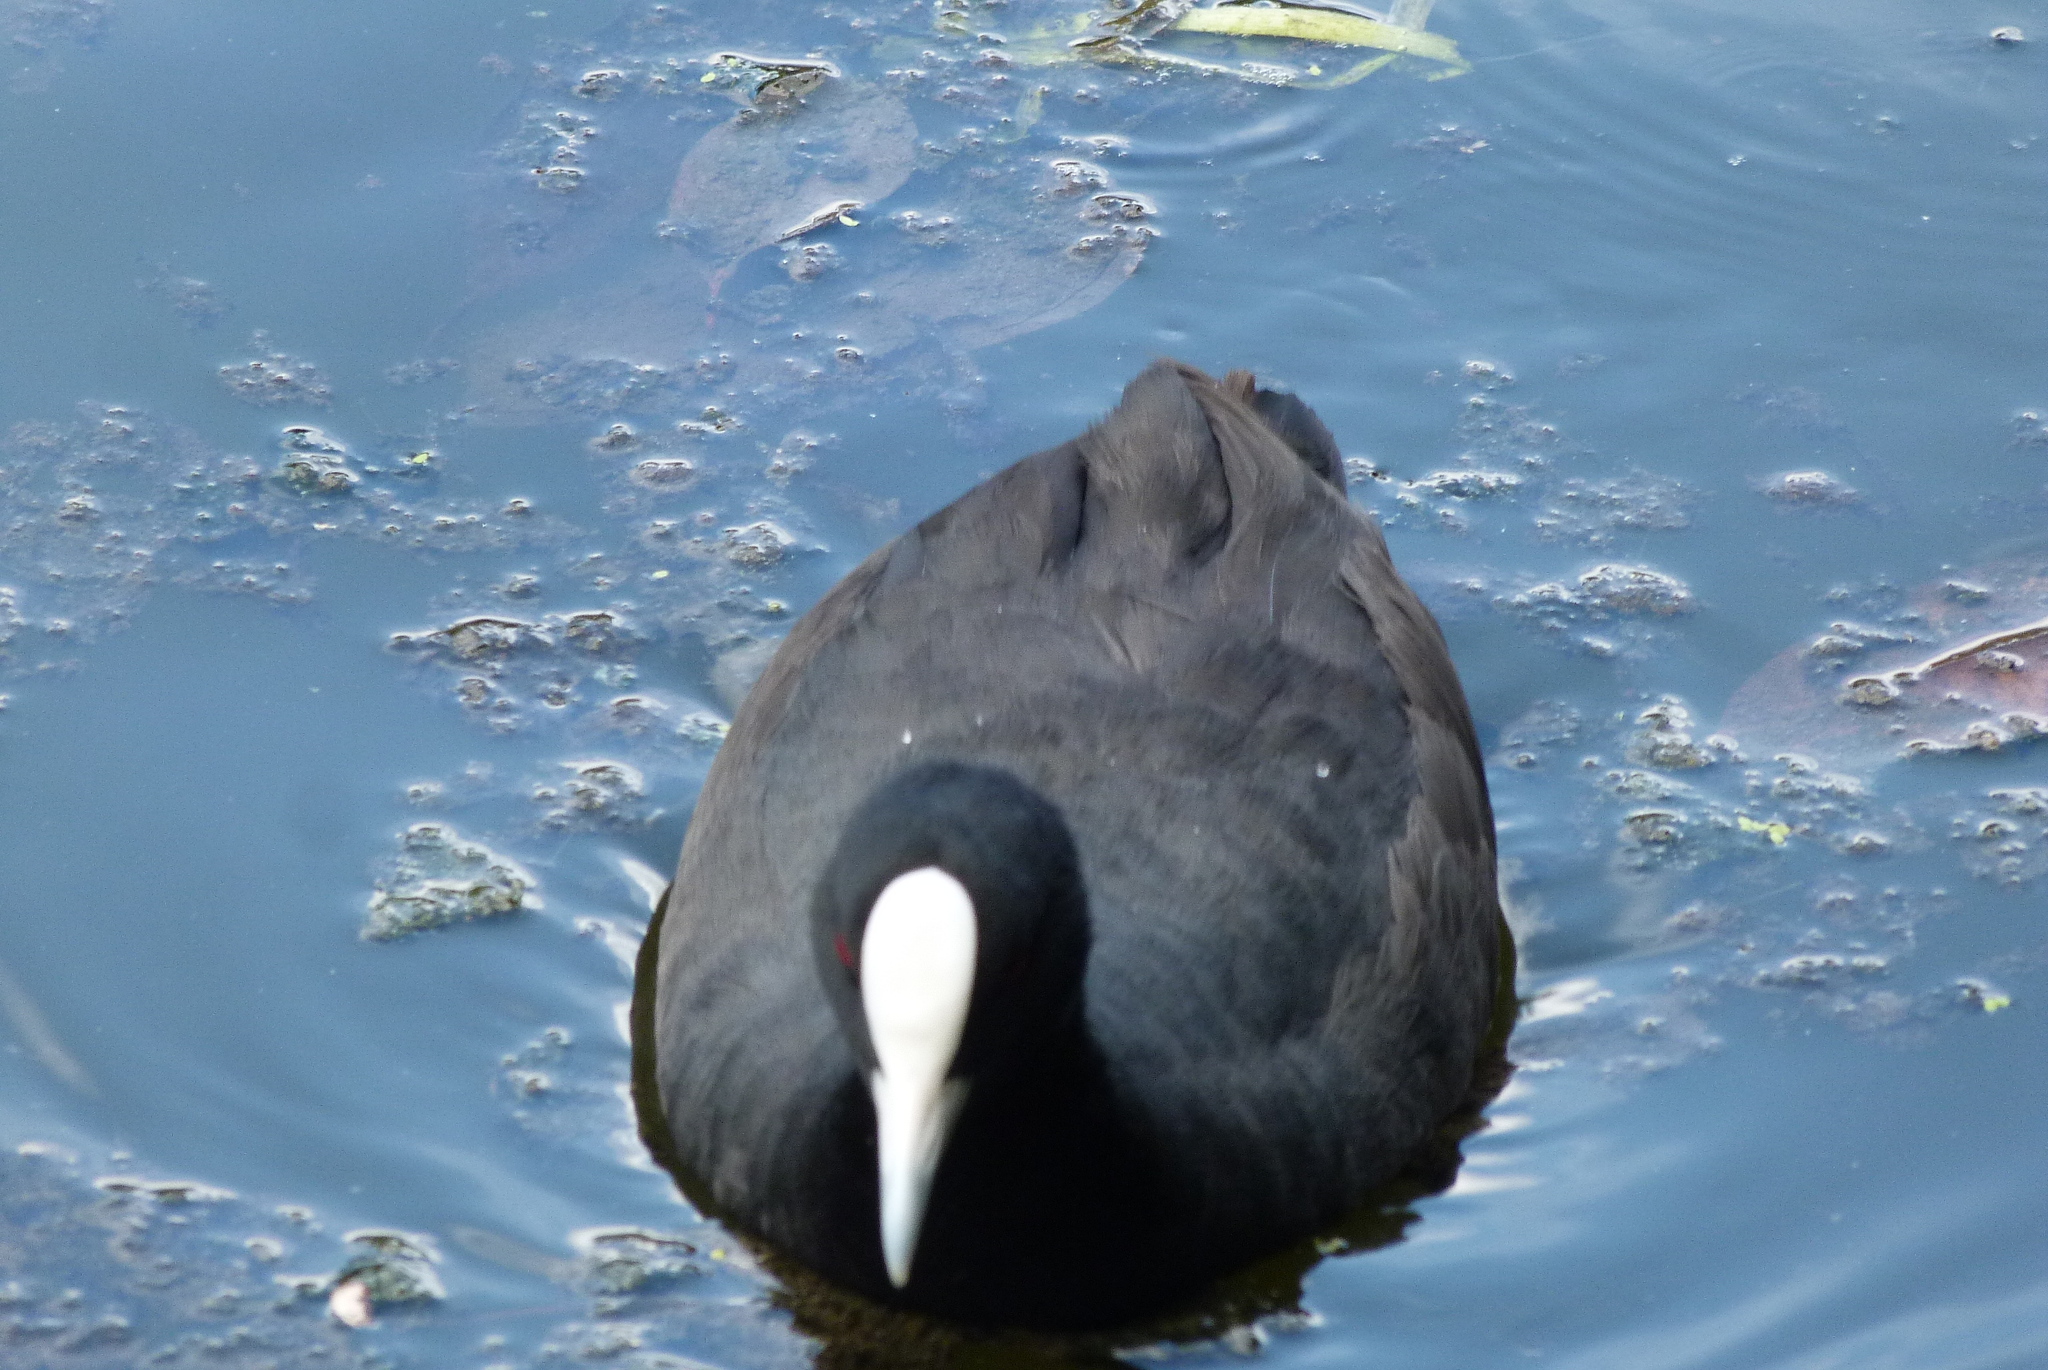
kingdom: Animalia
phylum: Chordata
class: Aves
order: Gruiformes
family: Rallidae
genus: Fulica
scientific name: Fulica atra
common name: Eurasian coot
